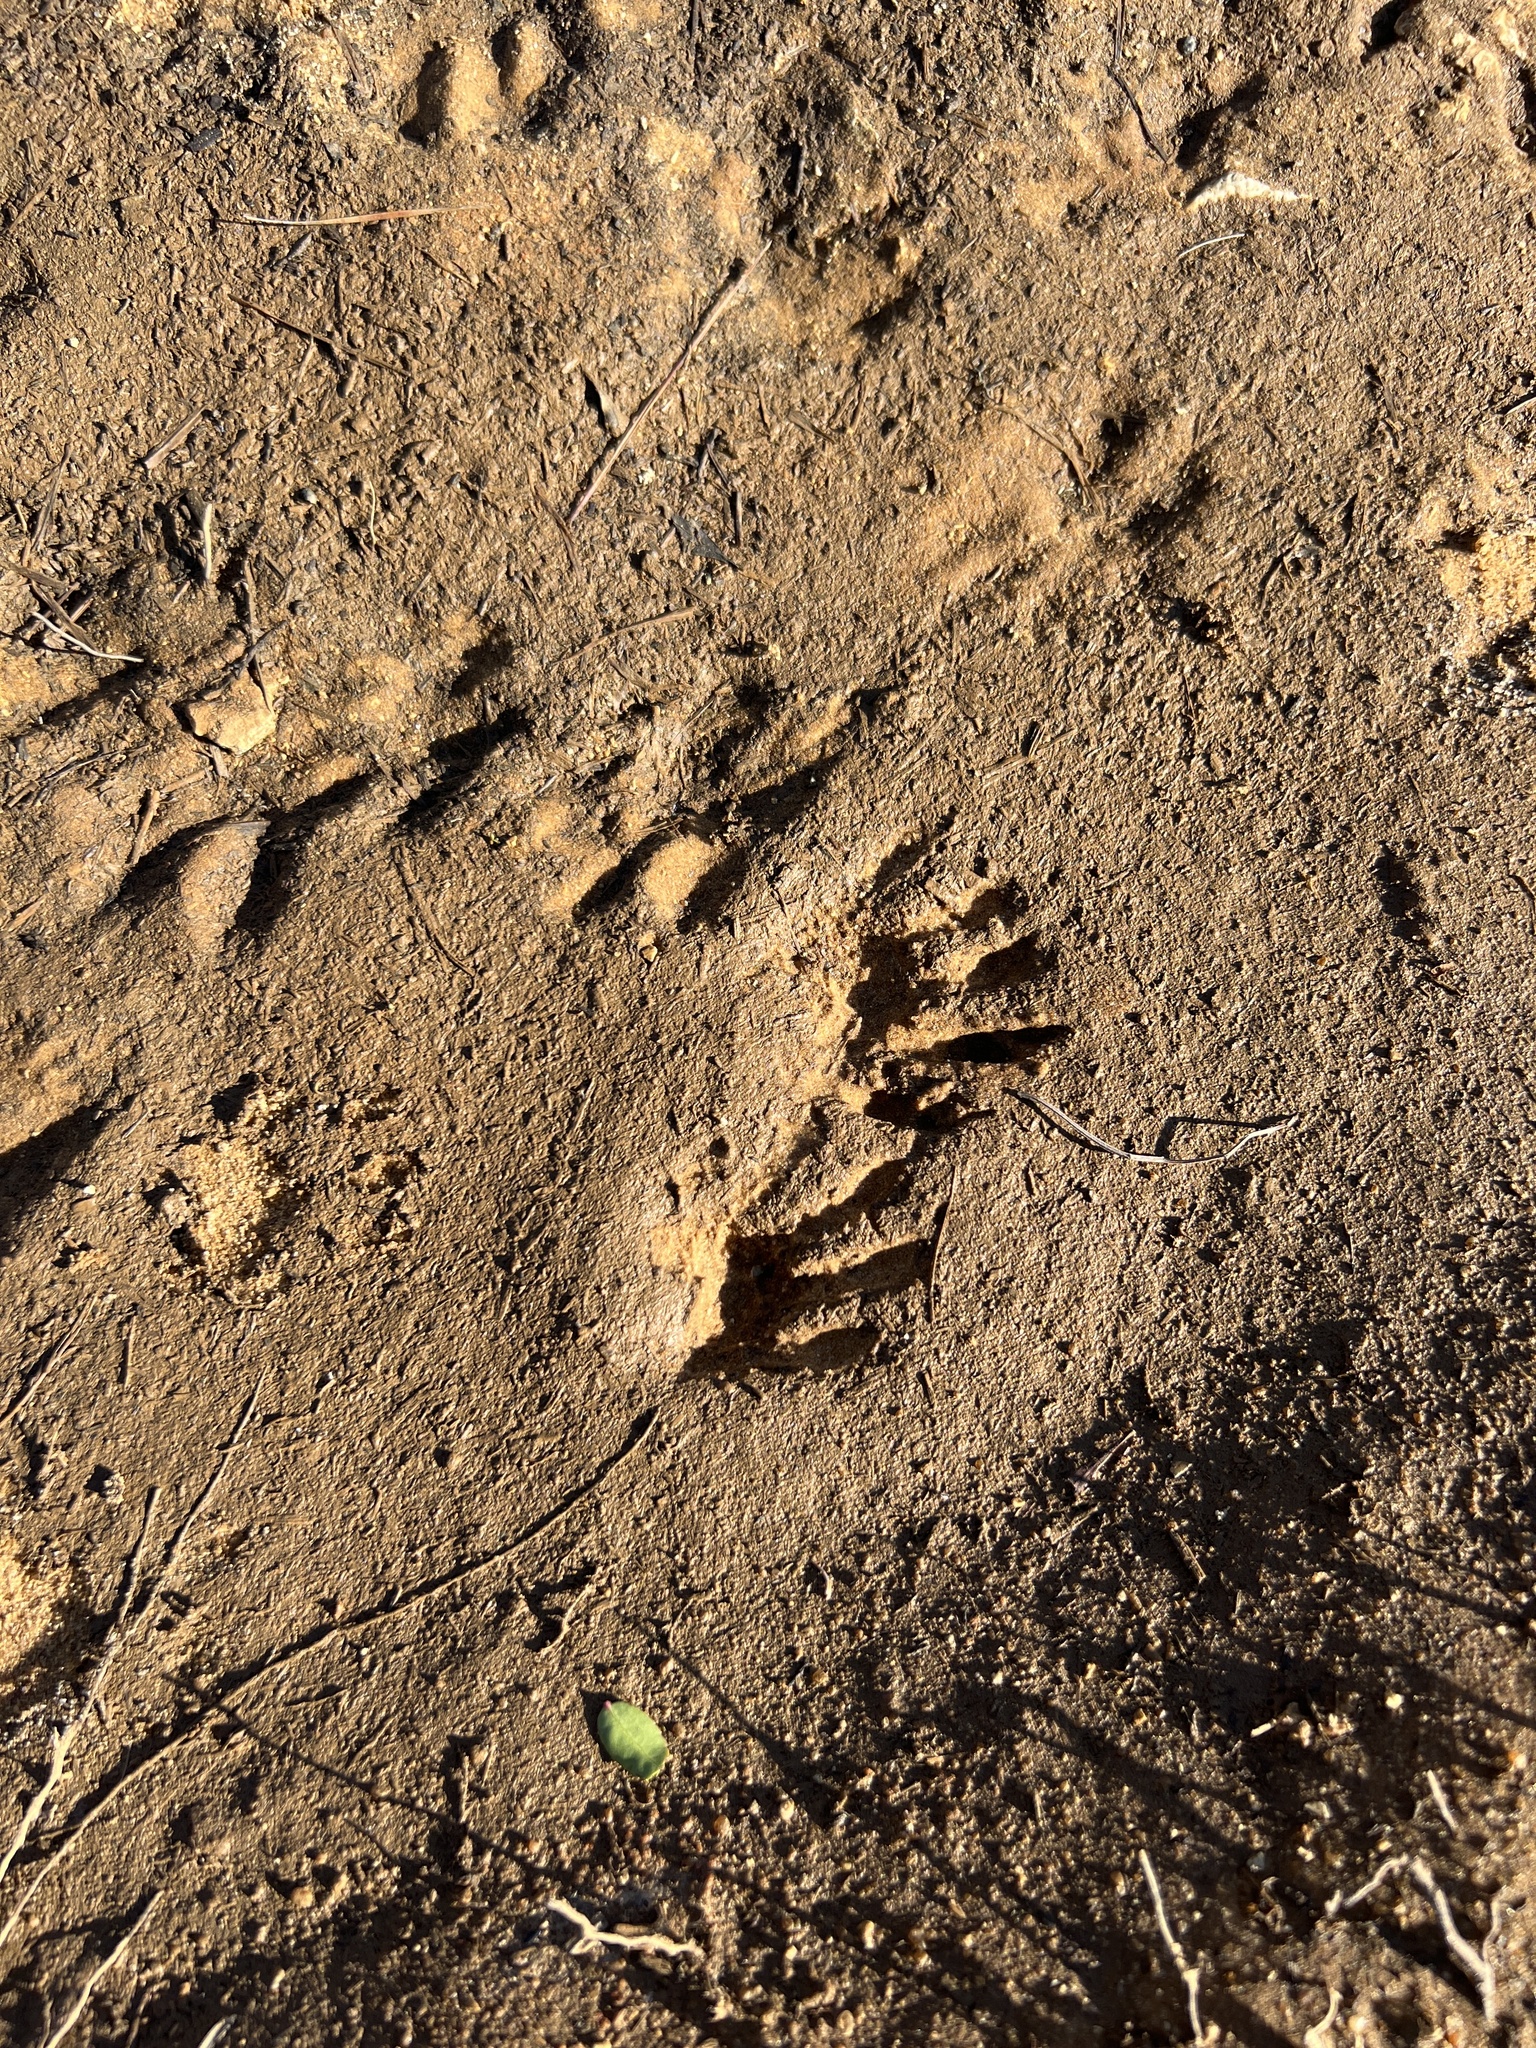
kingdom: Animalia
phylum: Chordata
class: Mammalia
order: Carnivora
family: Procyonidae
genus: Procyon
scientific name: Procyon lotor
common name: Raccoon
